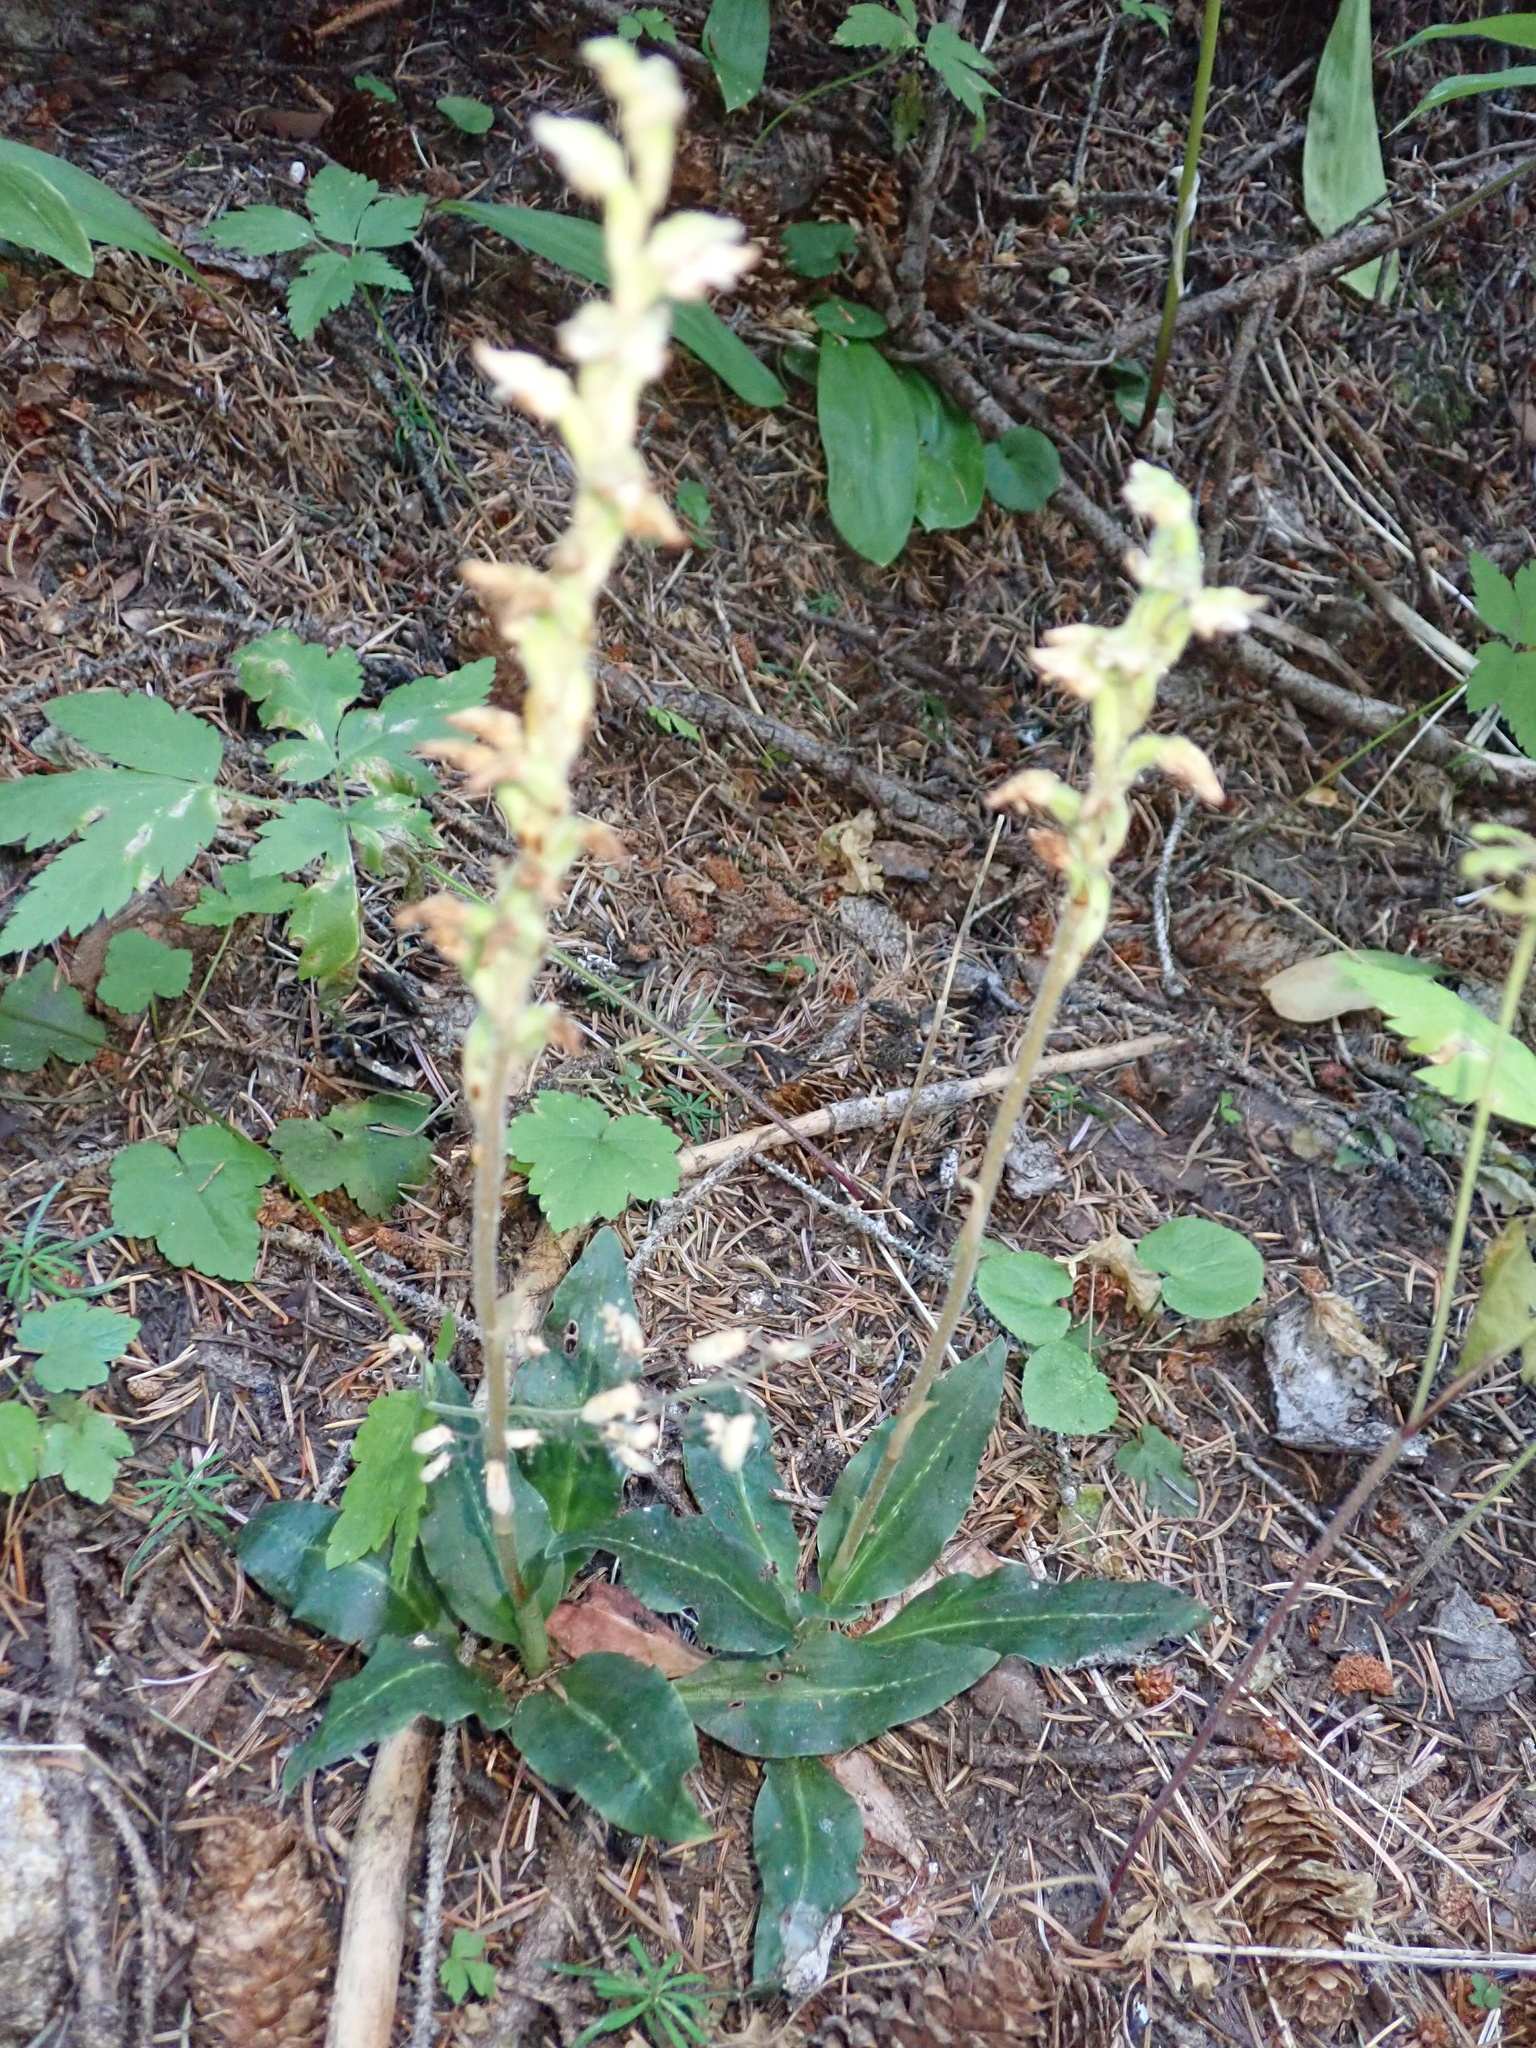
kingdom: Plantae
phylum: Tracheophyta
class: Liliopsida
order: Asparagales
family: Orchidaceae
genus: Goodyera
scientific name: Goodyera oblongifolia
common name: Giant rattlesnake-plantain
